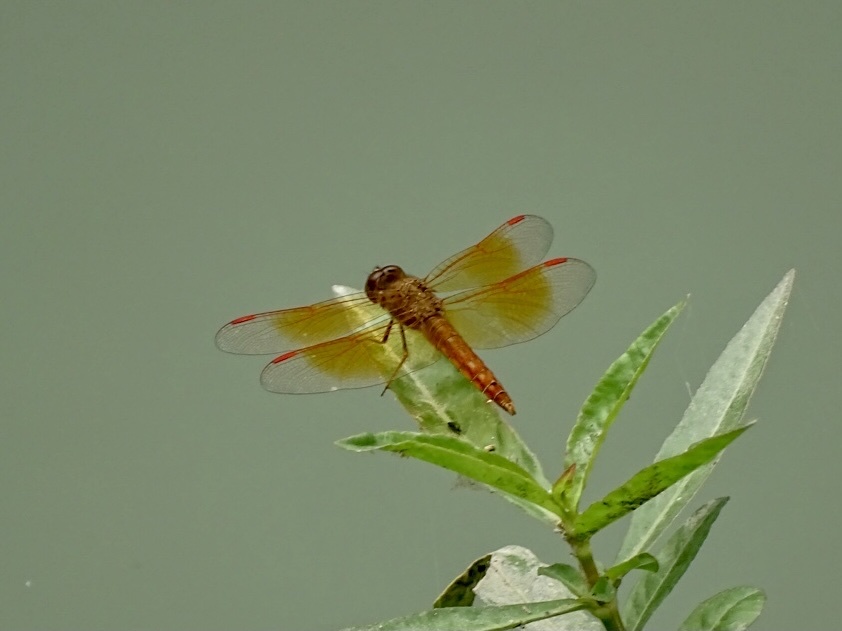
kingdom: Animalia
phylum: Arthropoda
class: Insecta
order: Odonata
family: Libellulidae
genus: Brachythemis
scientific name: Brachythemis contaminata
